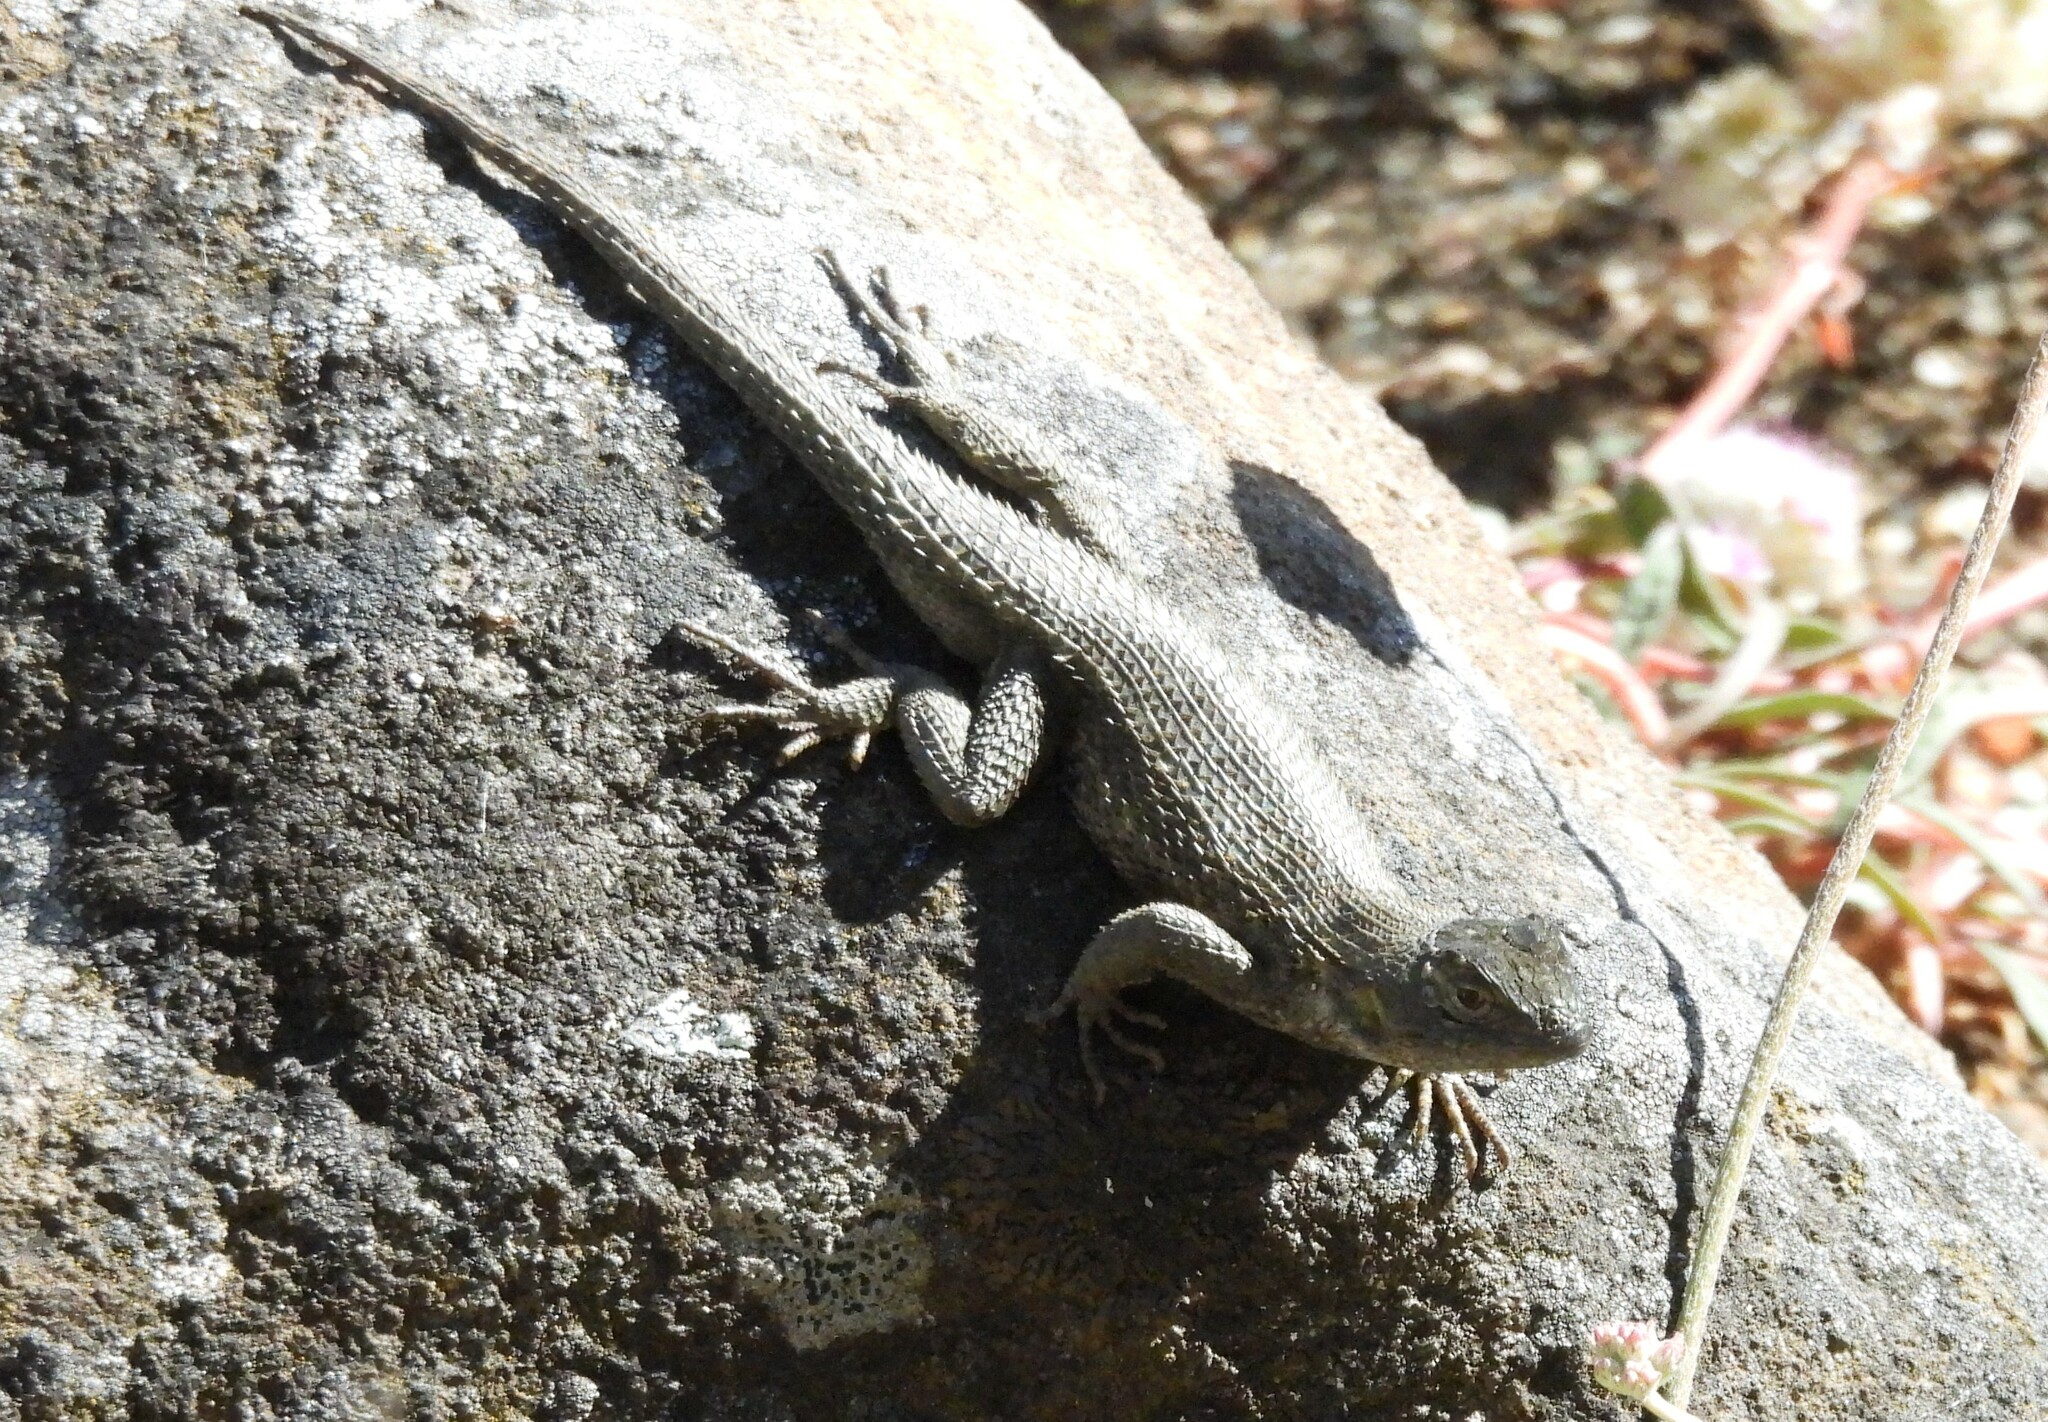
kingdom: Animalia
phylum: Chordata
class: Squamata
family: Phrynosomatidae
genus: Sceloporus
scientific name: Sceloporus occidentalis
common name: Western fence lizard
